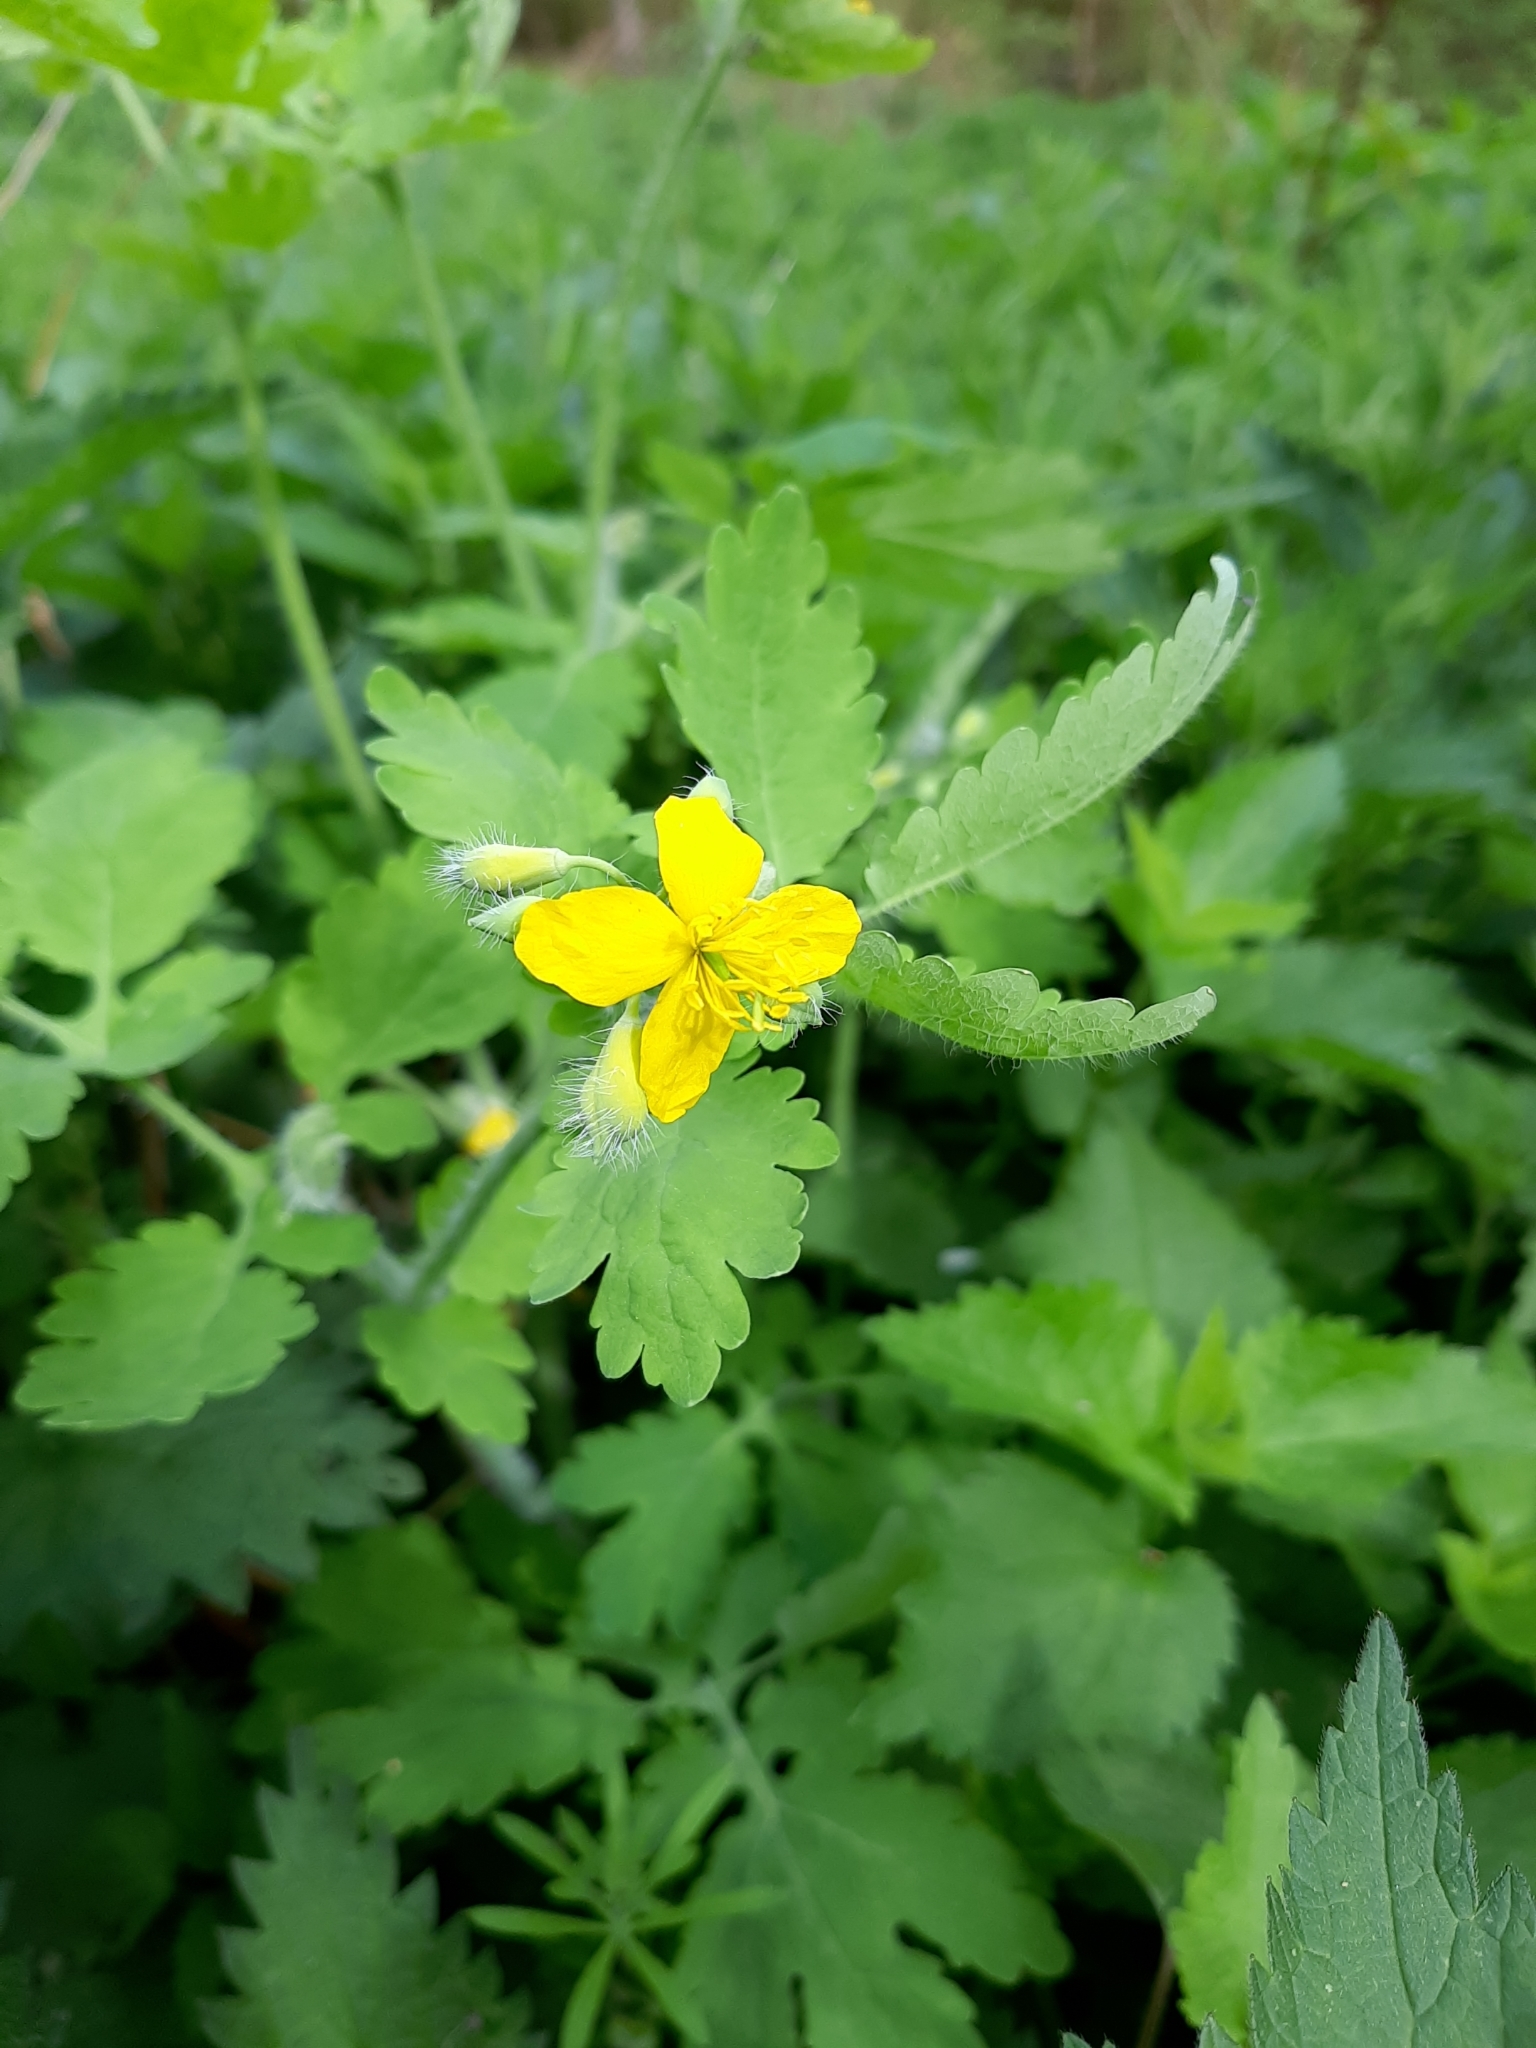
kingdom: Plantae
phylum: Tracheophyta
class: Magnoliopsida
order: Ranunculales
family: Papaveraceae
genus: Chelidonium
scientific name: Chelidonium majus
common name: Greater celandine
